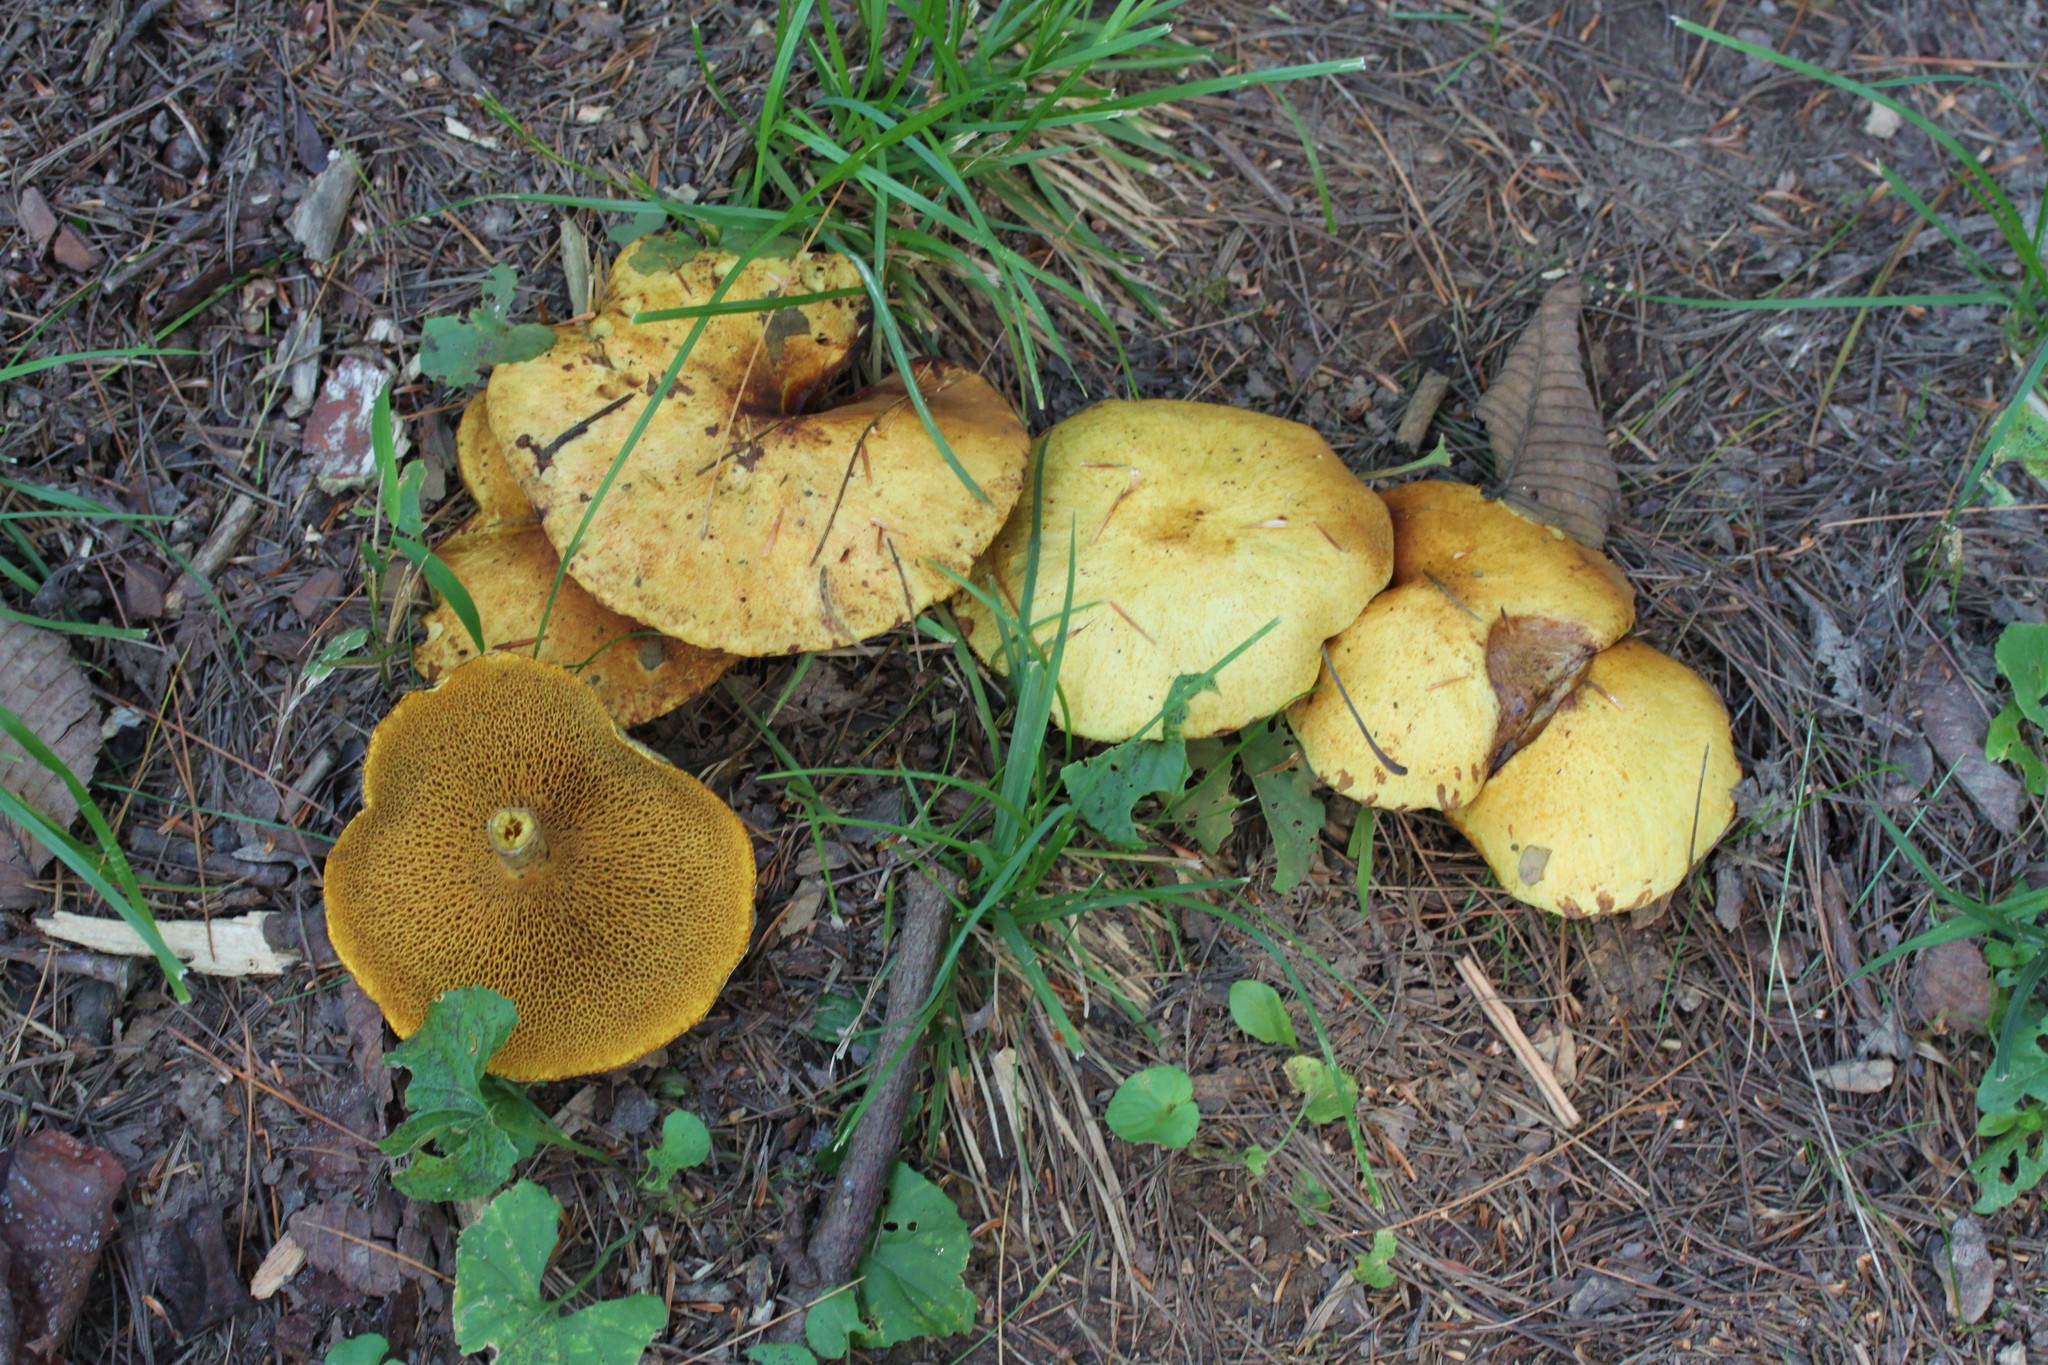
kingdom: Fungi
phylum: Basidiomycota
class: Agaricomycetes
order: Boletales
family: Suillaceae
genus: Suillus
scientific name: Suillus americanus
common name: Chicken fat mushroom
